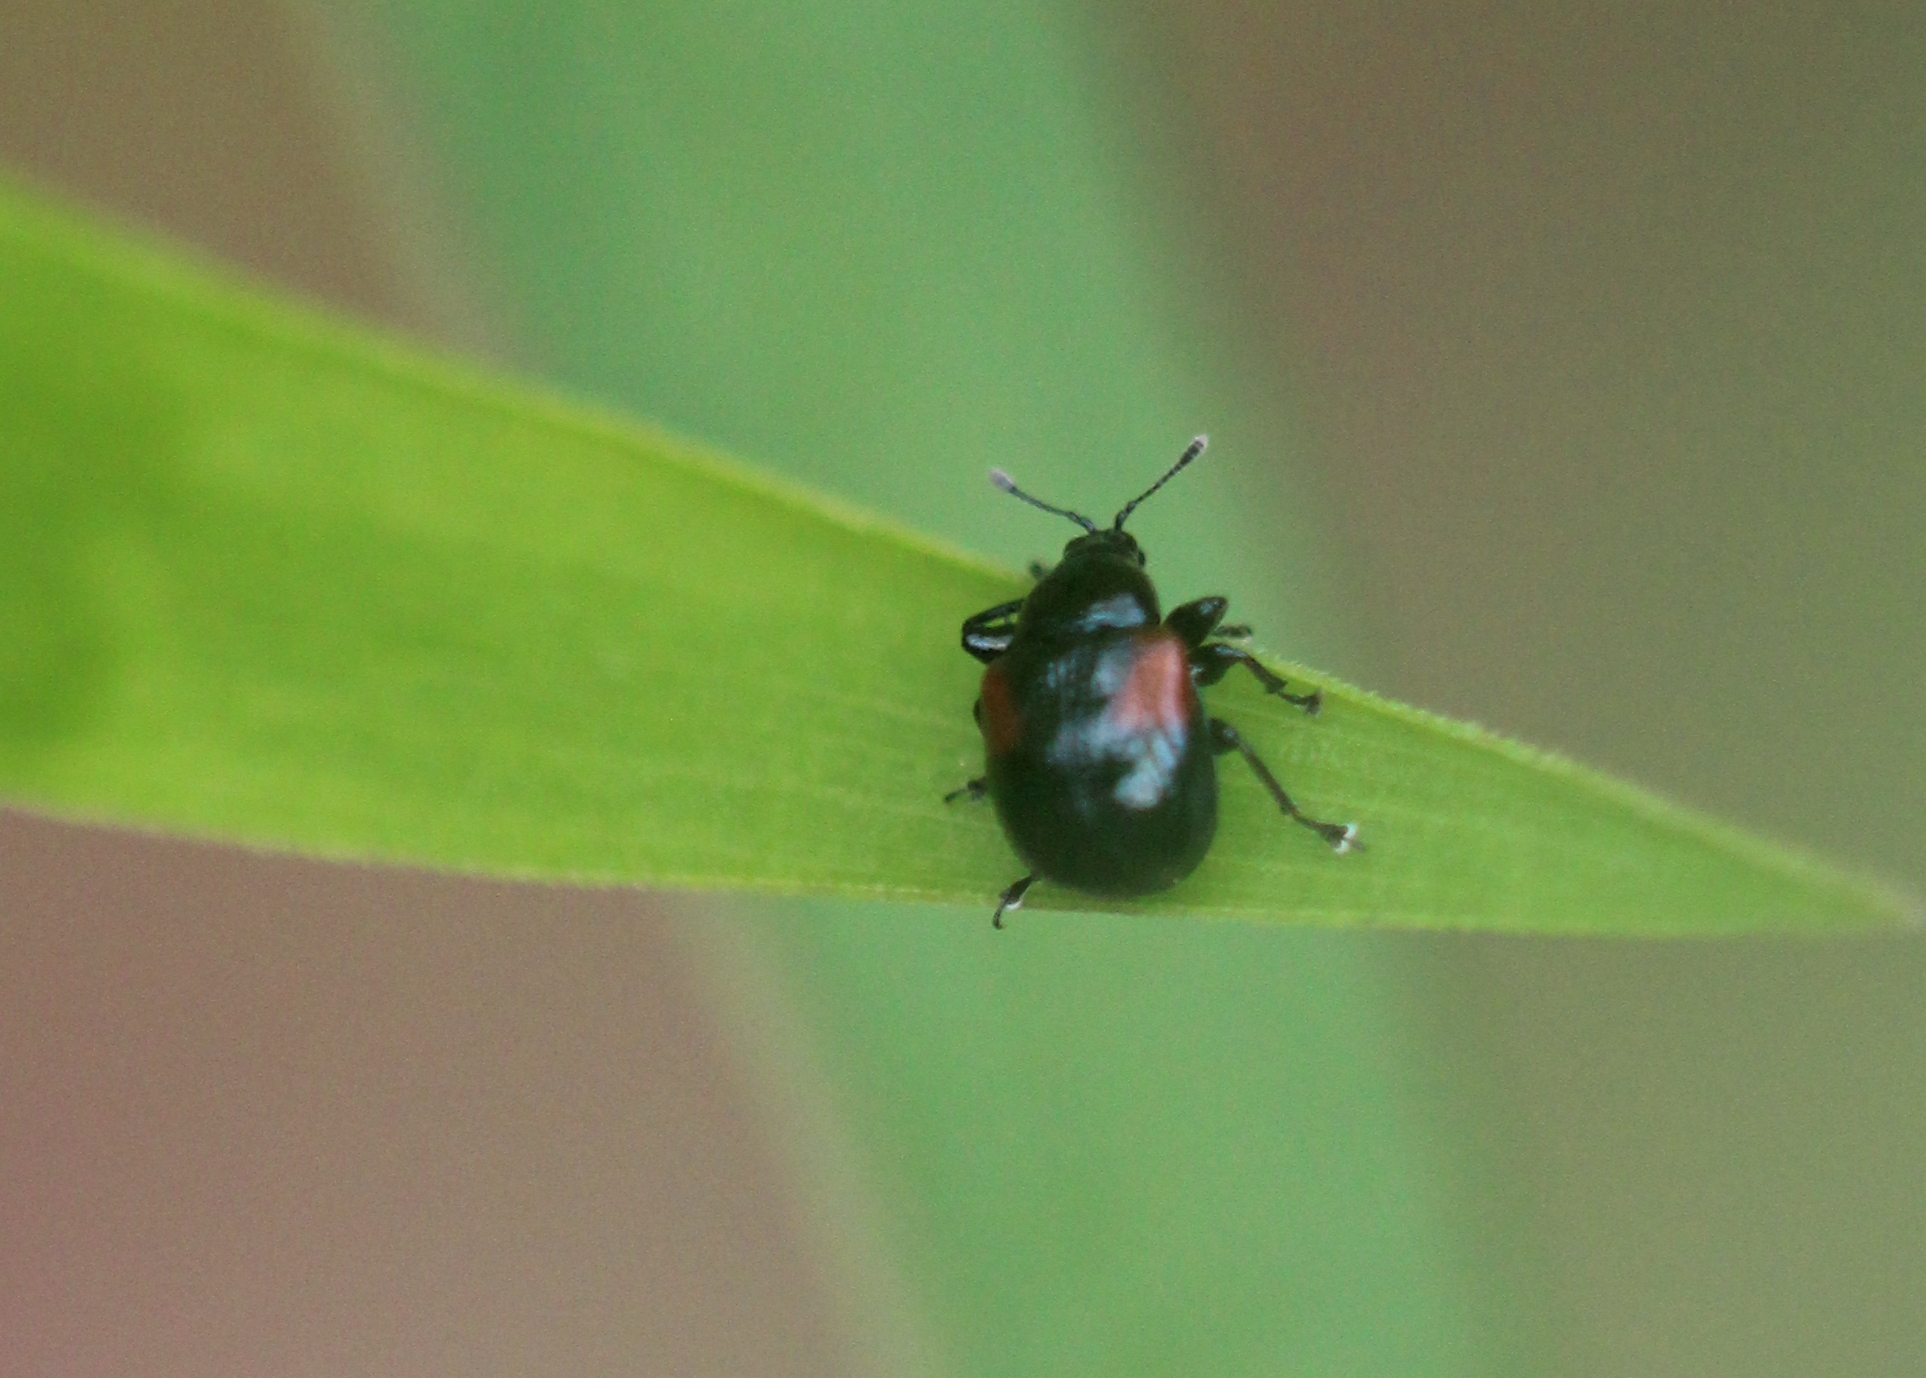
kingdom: Animalia
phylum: Arthropoda
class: Insecta
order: Coleoptera
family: Attelabidae
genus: Attelabus
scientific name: Attelabus bipustulatus
